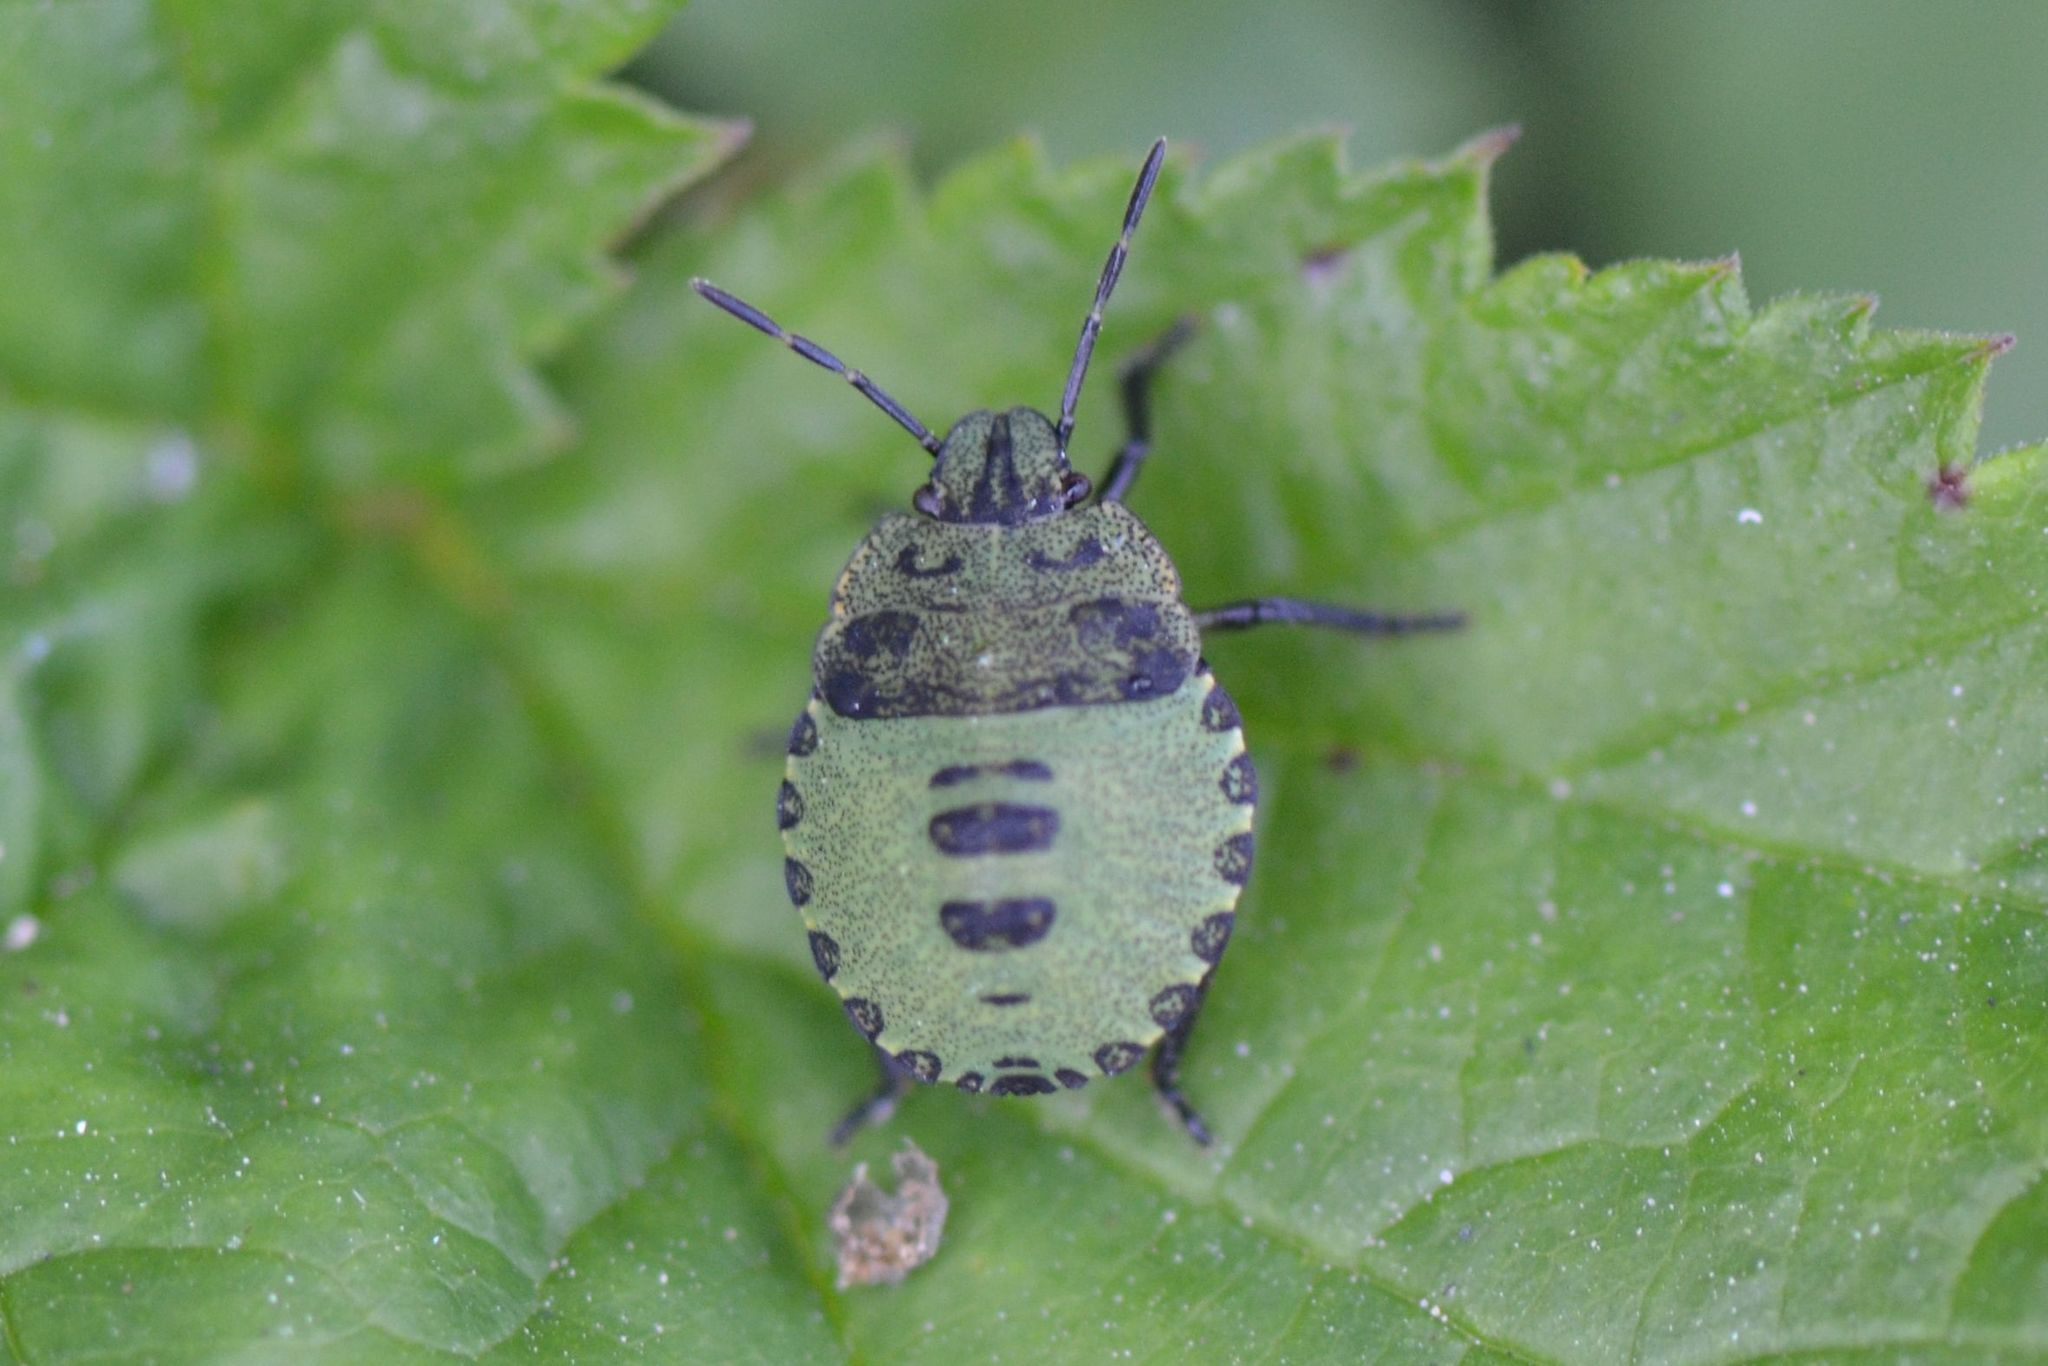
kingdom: Animalia
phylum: Arthropoda
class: Insecta
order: Hemiptera
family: Pentatomidae
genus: Palomena
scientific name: Palomena prasina
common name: Green shieldbug
